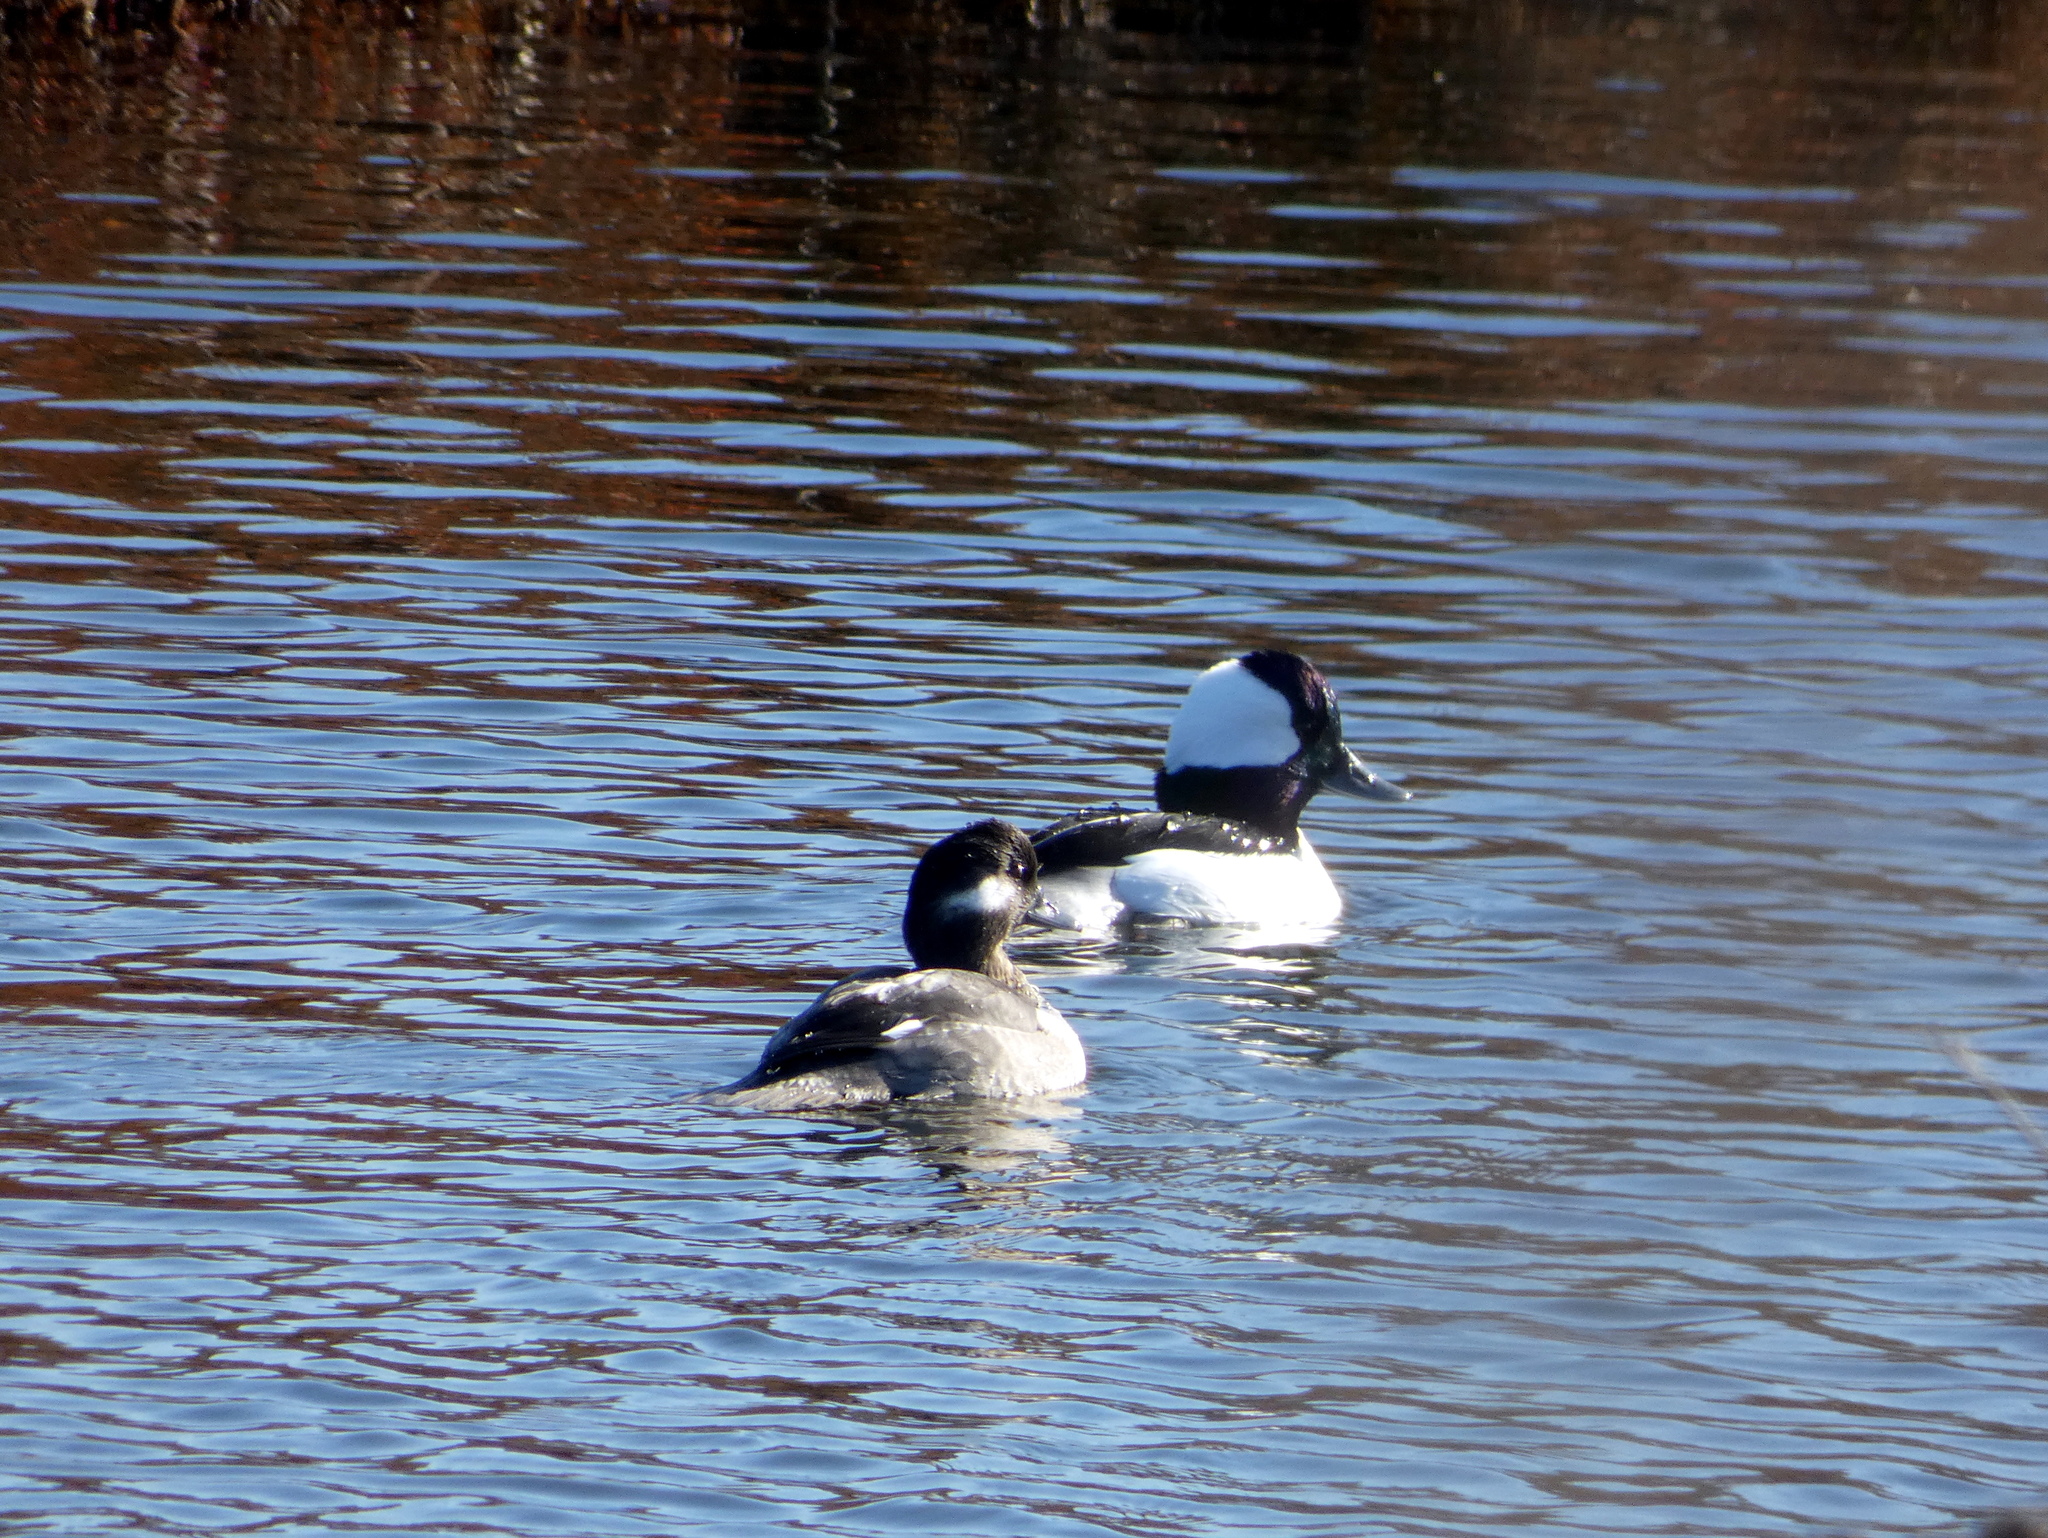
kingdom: Animalia
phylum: Chordata
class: Aves
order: Anseriformes
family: Anatidae
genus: Bucephala
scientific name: Bucephala albeola
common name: Bufflehead
